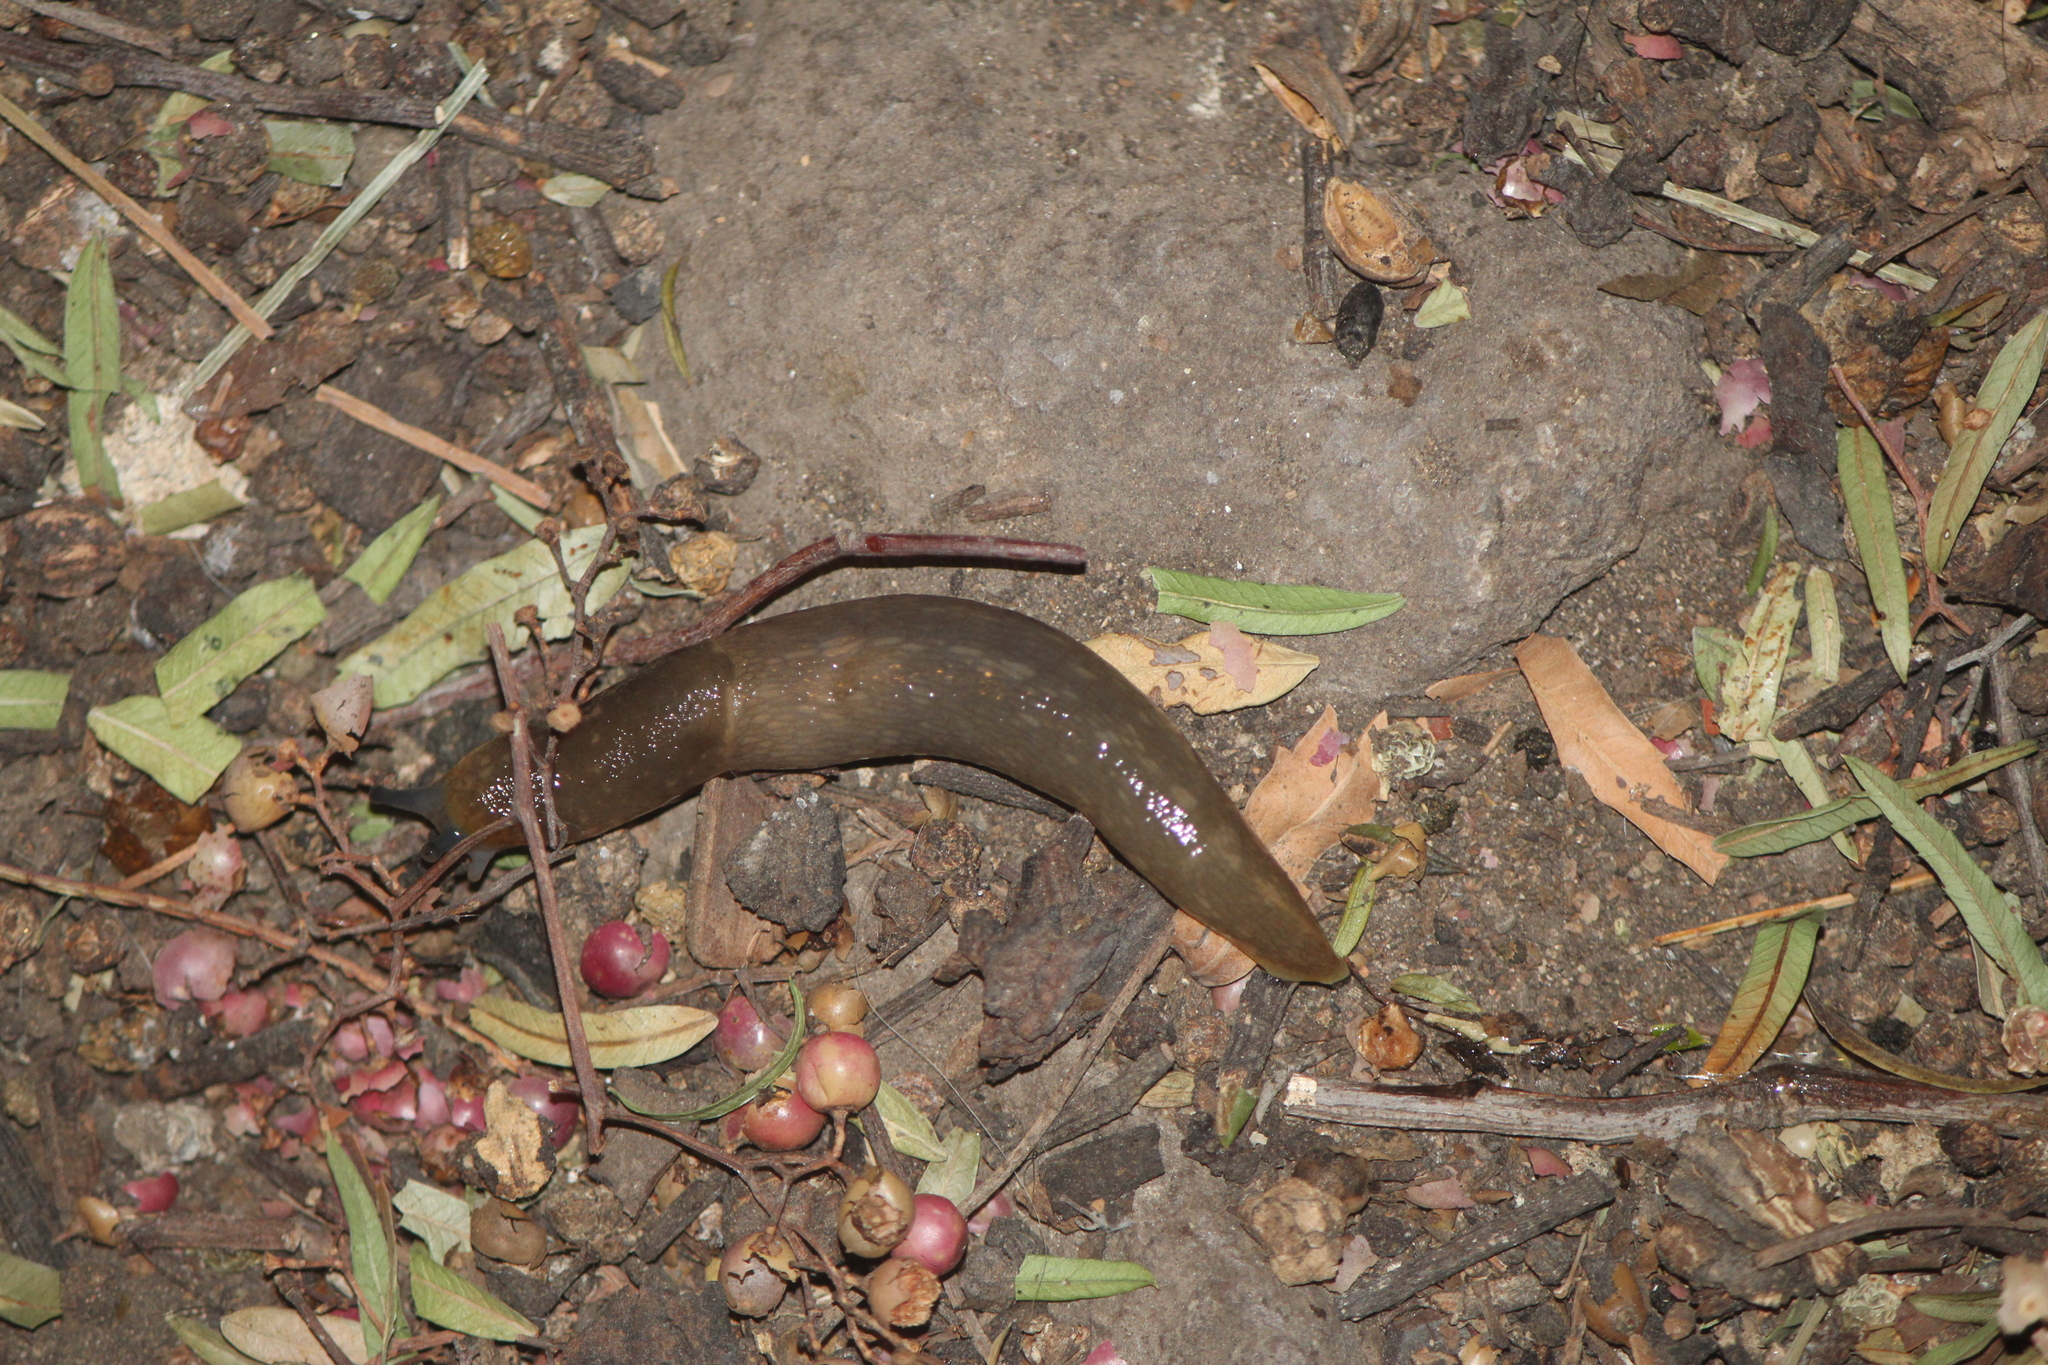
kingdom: Animalia
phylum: Mollusca
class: Gastropoda
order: Stylommatophora
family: Limacidae
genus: Limacus
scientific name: Limacus flavus
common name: Yellow gardenslug
